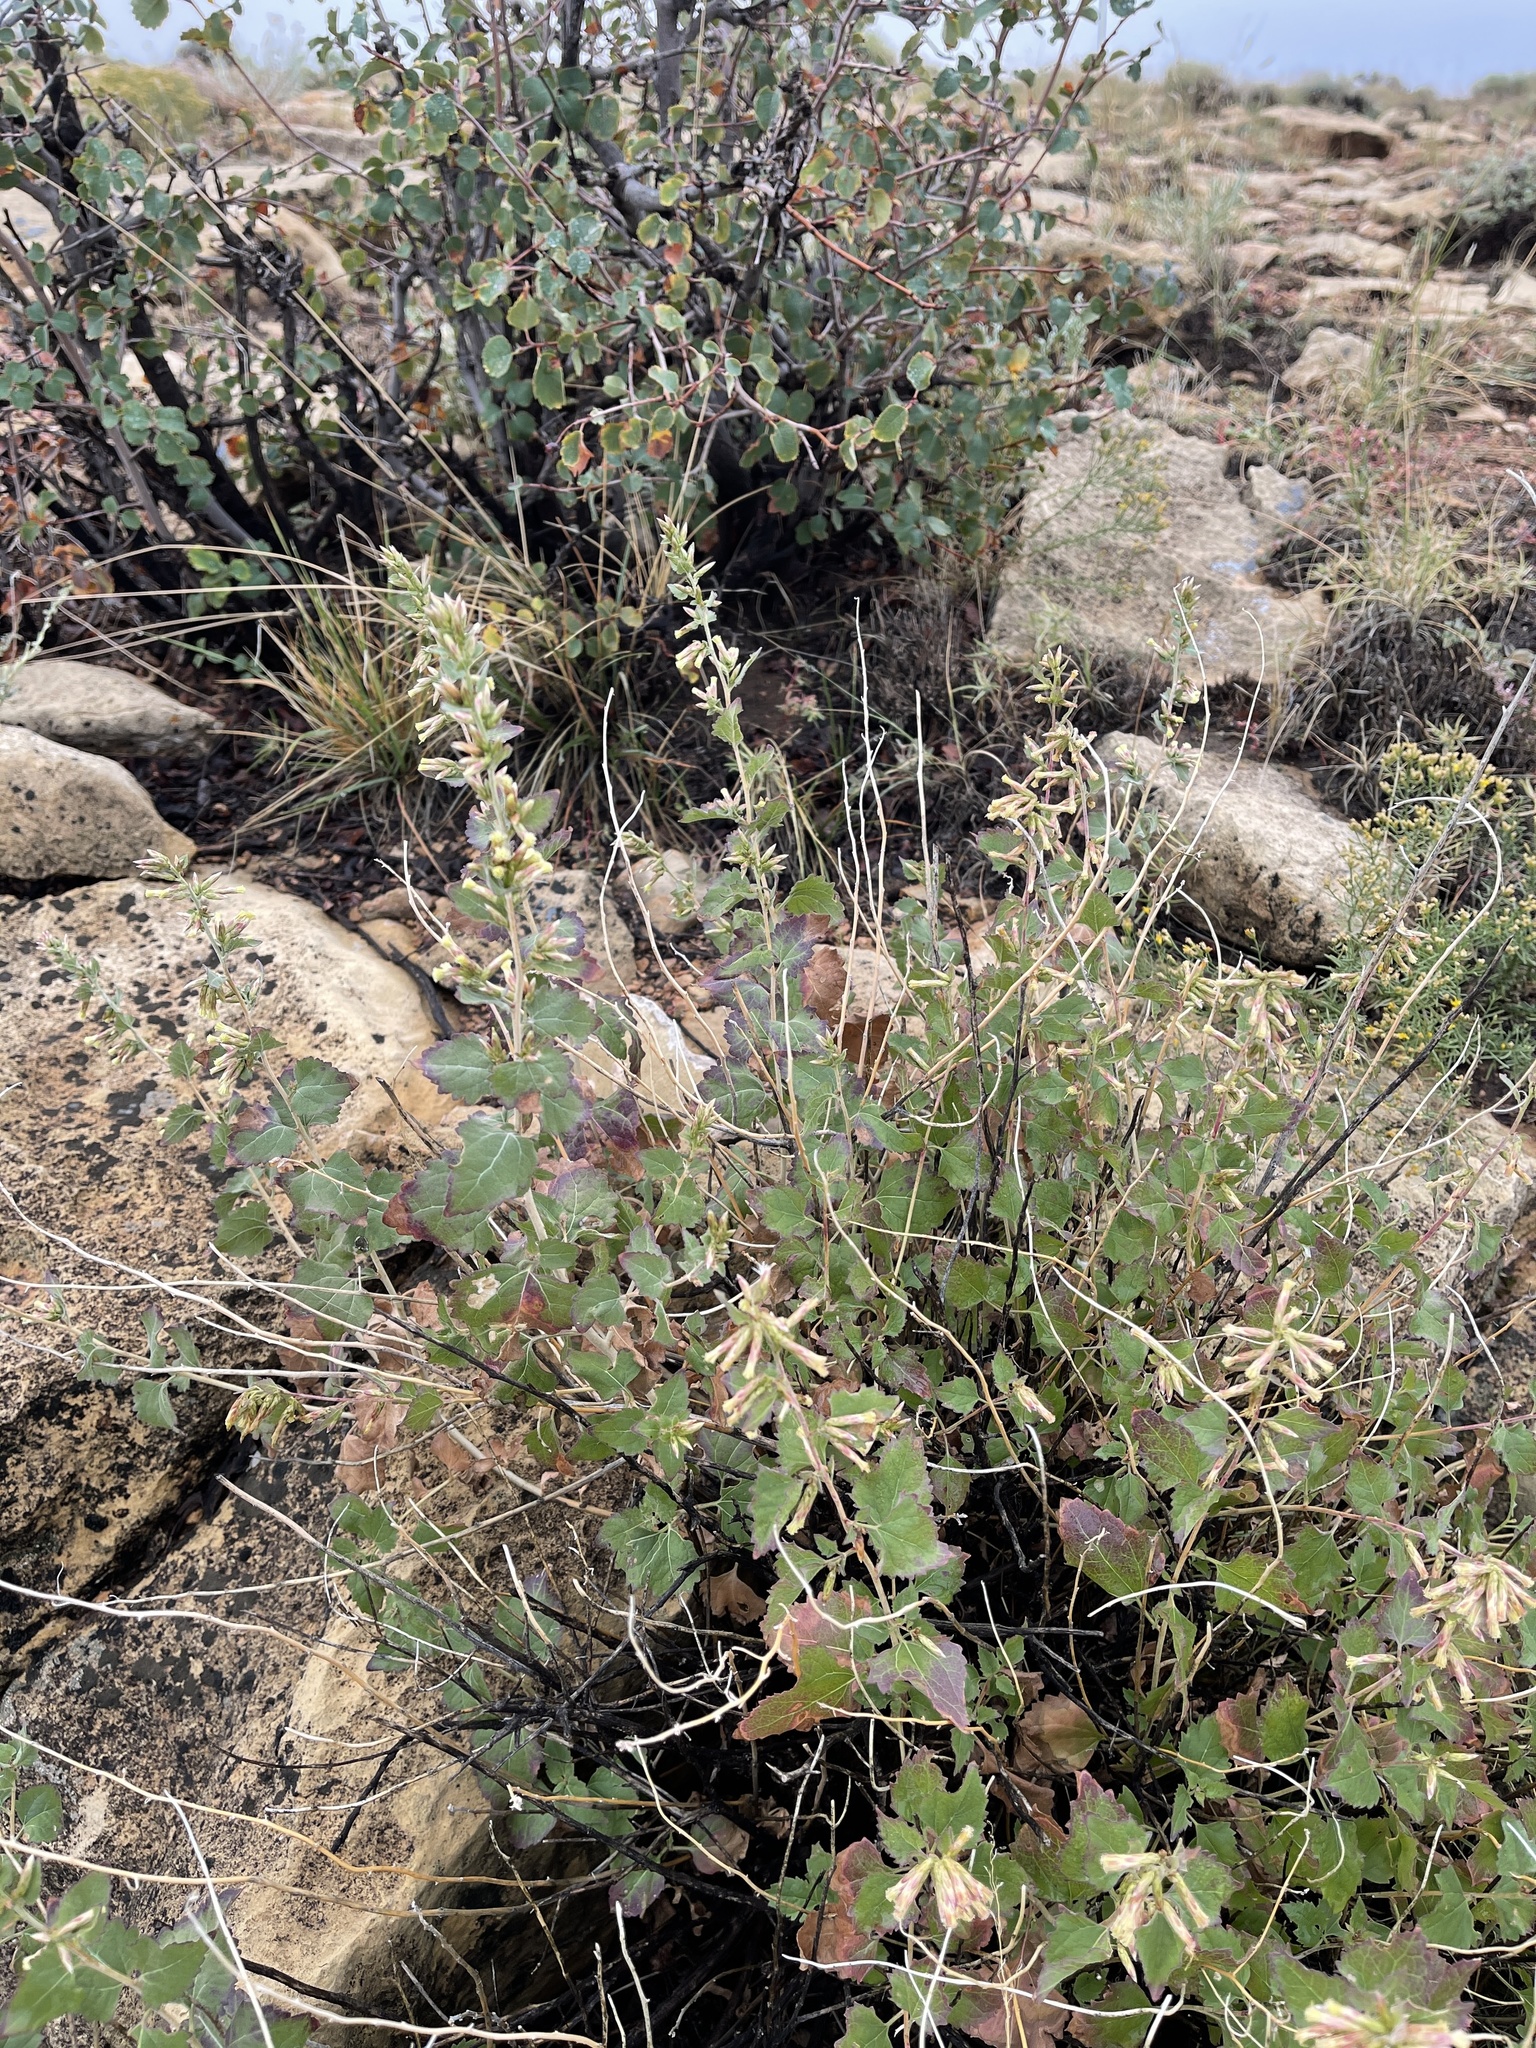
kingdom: Plantae
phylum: Tracheophyta
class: Magnoliopsida
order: Asterales
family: Asteraceae
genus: Brickellia
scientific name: Brickellia californica
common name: California brickellbush
